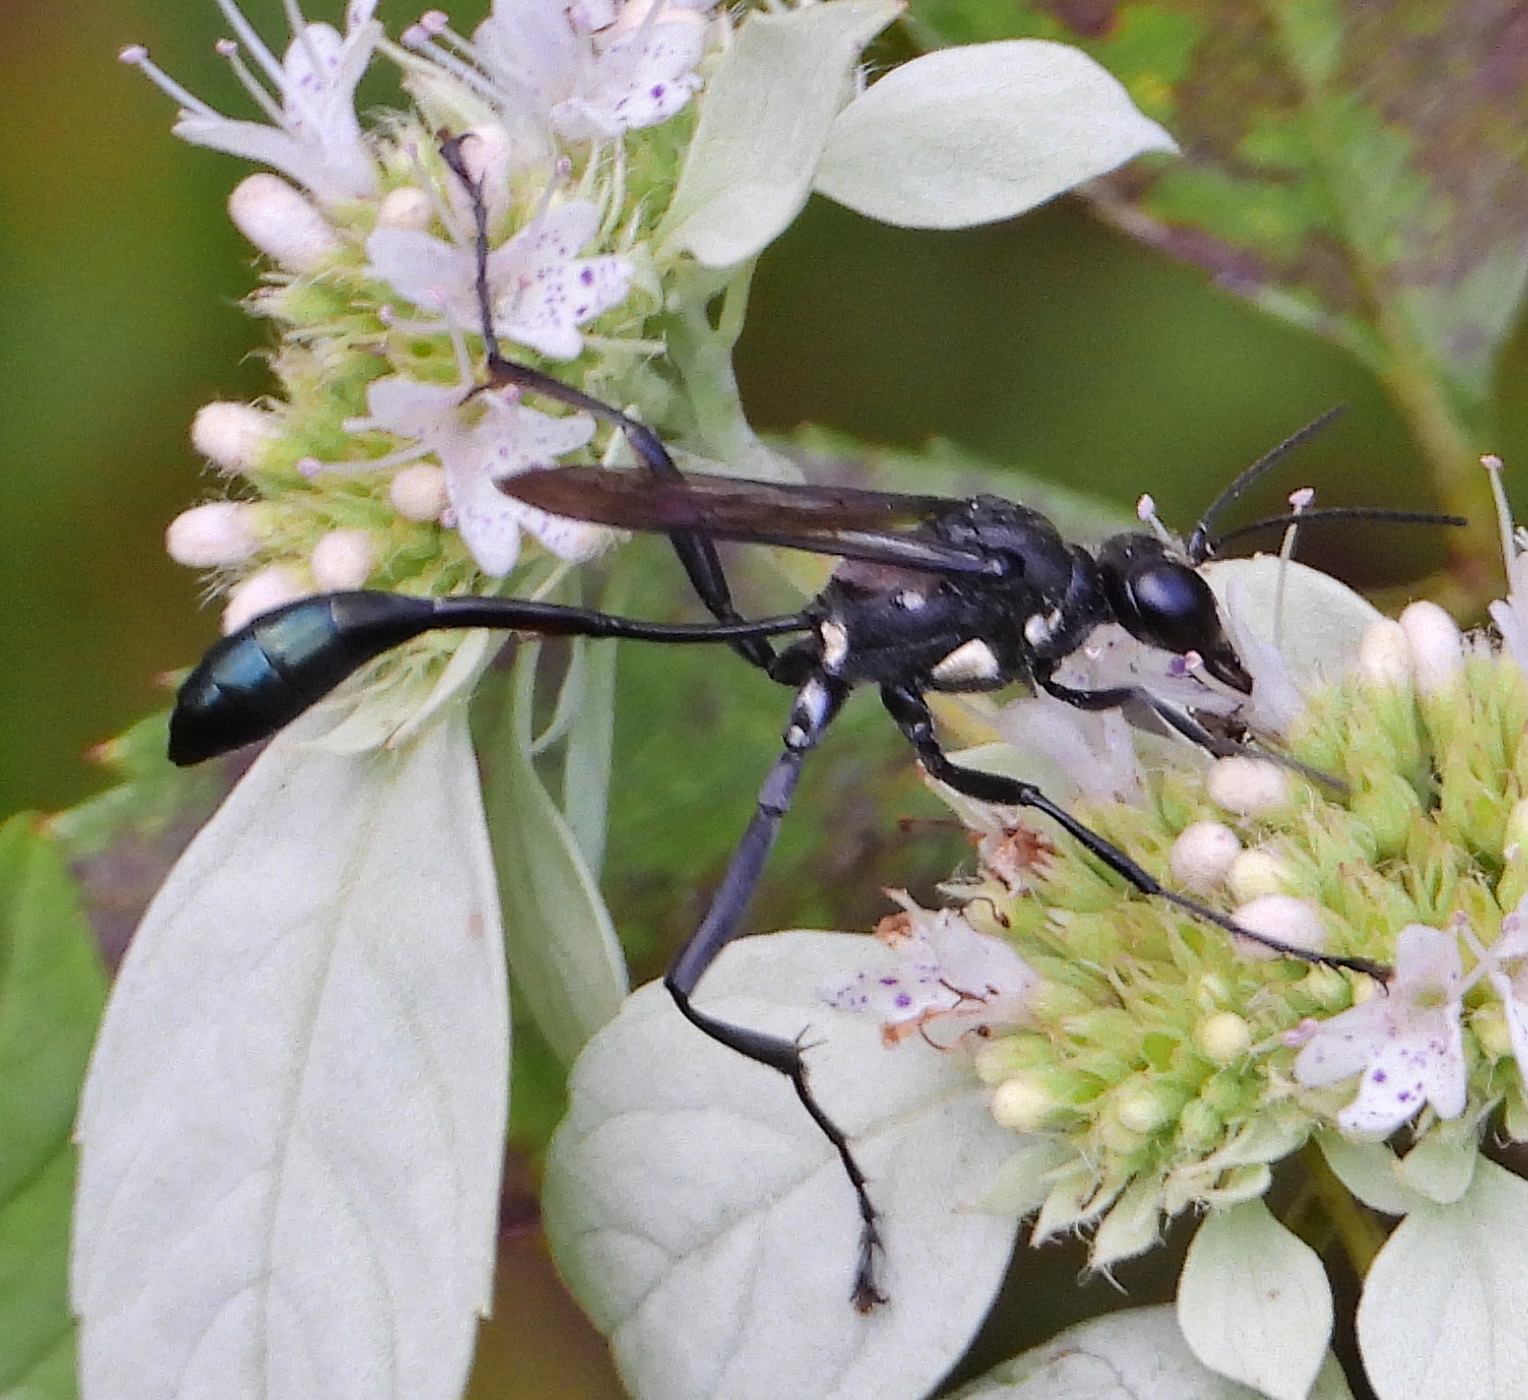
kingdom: Animalia
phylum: Arthropoda
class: Insecta
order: Hymenoptera
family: Sphecidae
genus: Eremnophila
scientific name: Eremnophila aureonotata
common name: Gold-marked thread-waisted wasp
